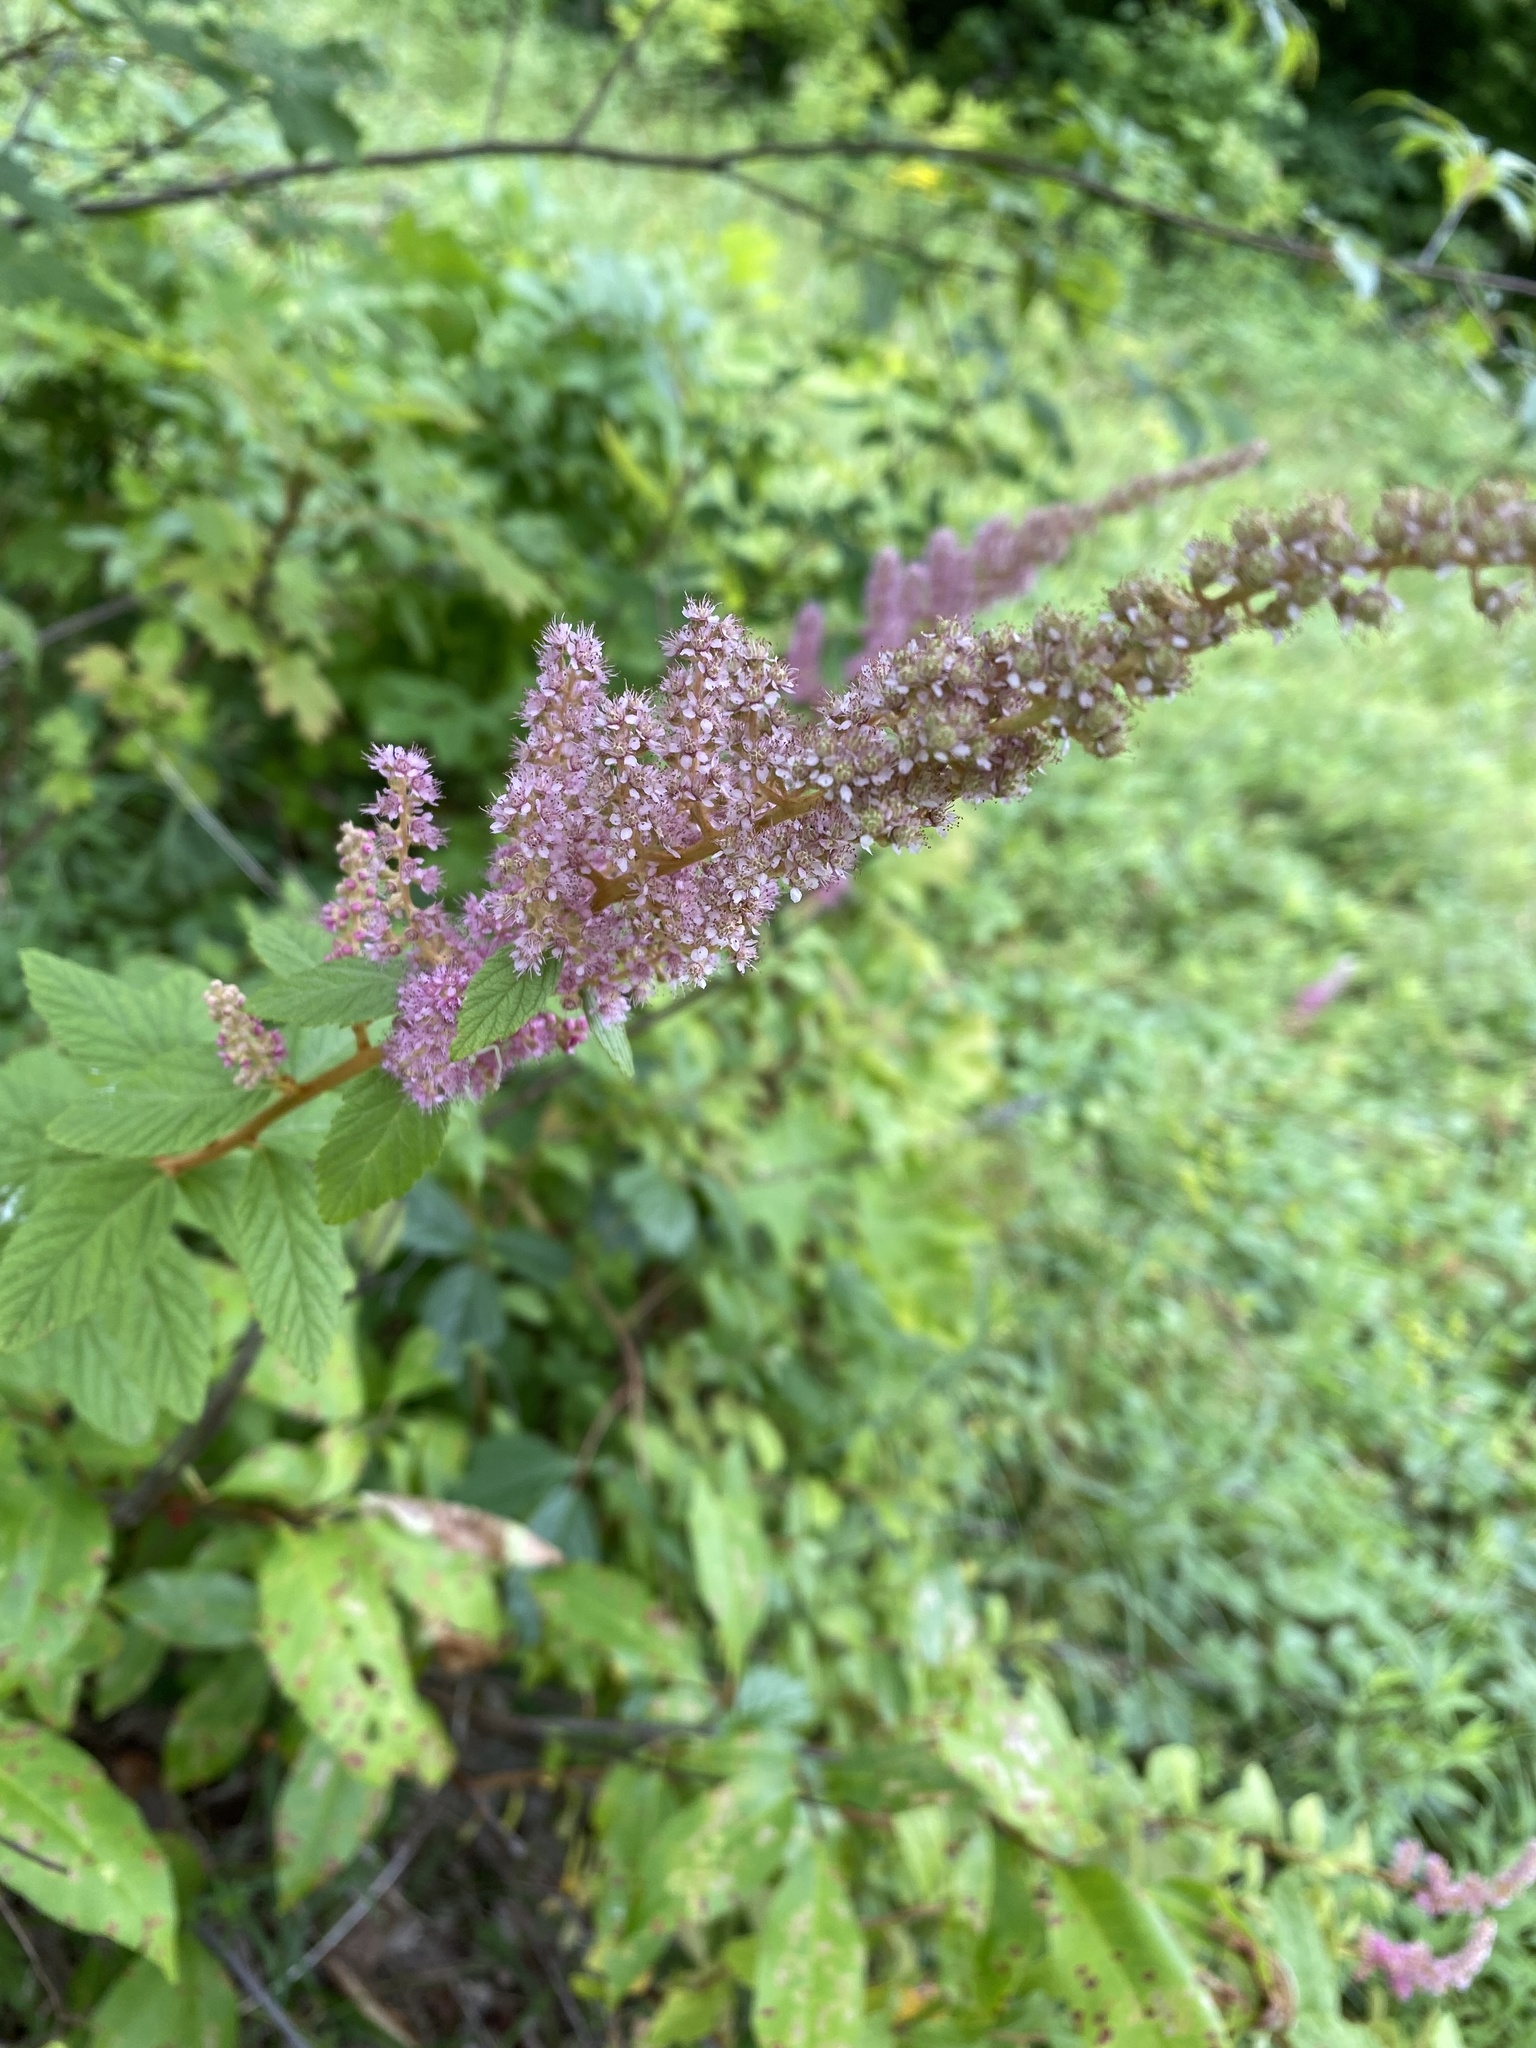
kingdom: Plantae
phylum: Tracheophyta
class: Magnoliopsida
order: Rosales
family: Rosaceae
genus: Spiraea
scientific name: Spiraea tomentosa
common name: Hardhack
